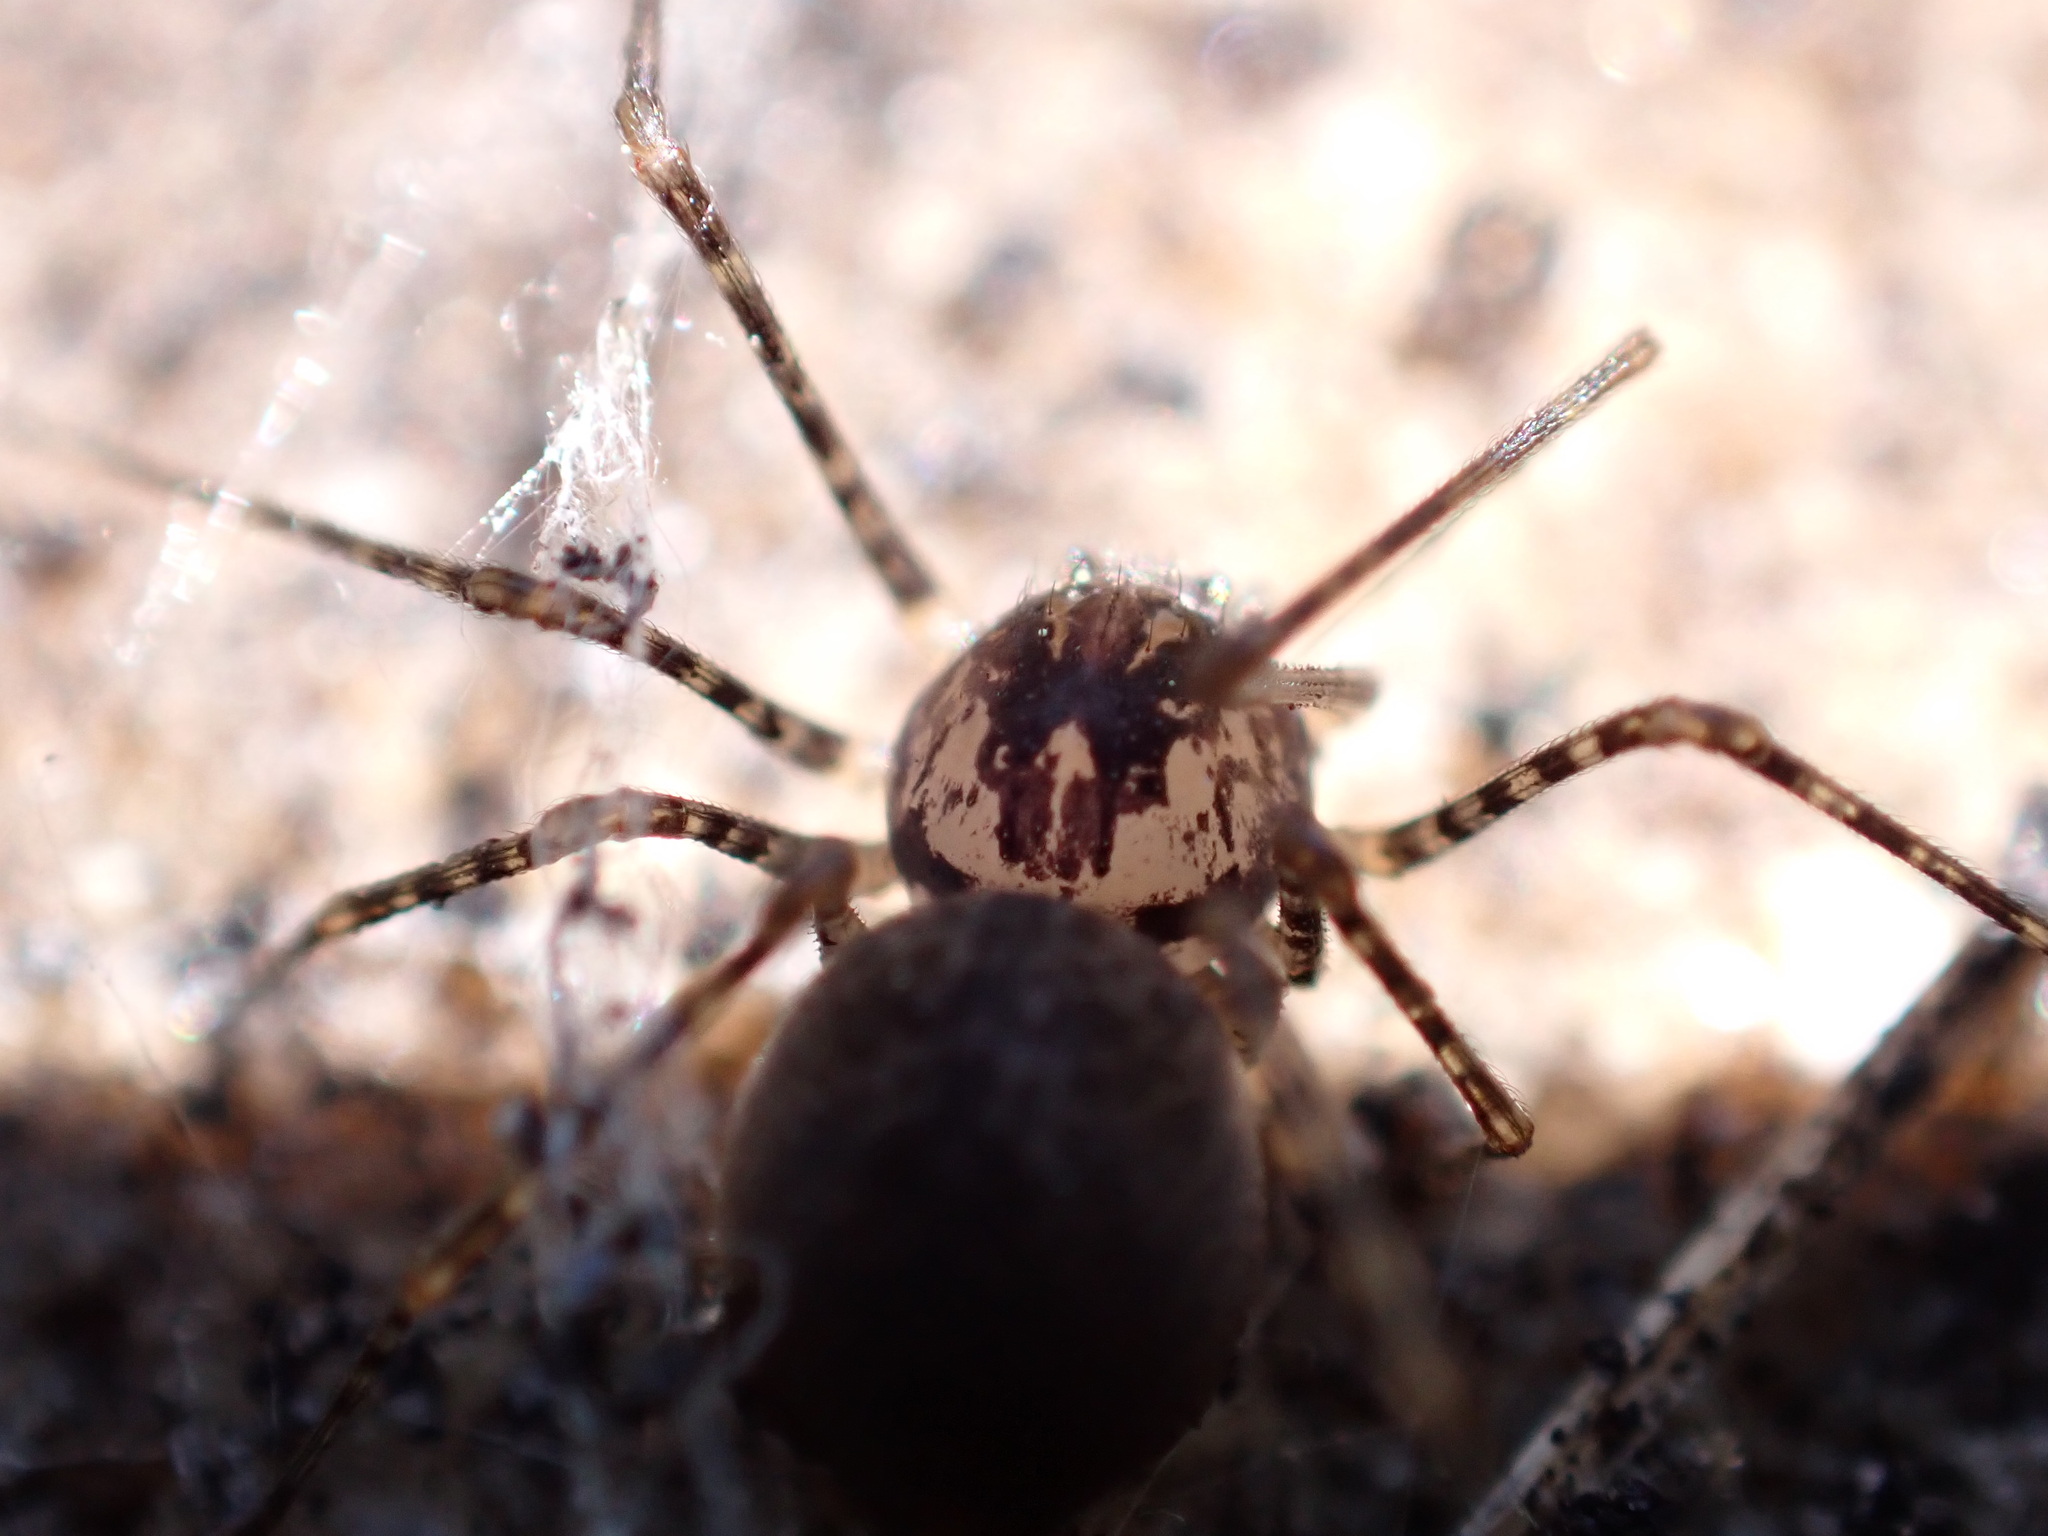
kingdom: Animalia
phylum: Arthropoda
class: Arachnida
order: Araneae
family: Scytodidae
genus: Scytodes
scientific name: Scytodes globula
